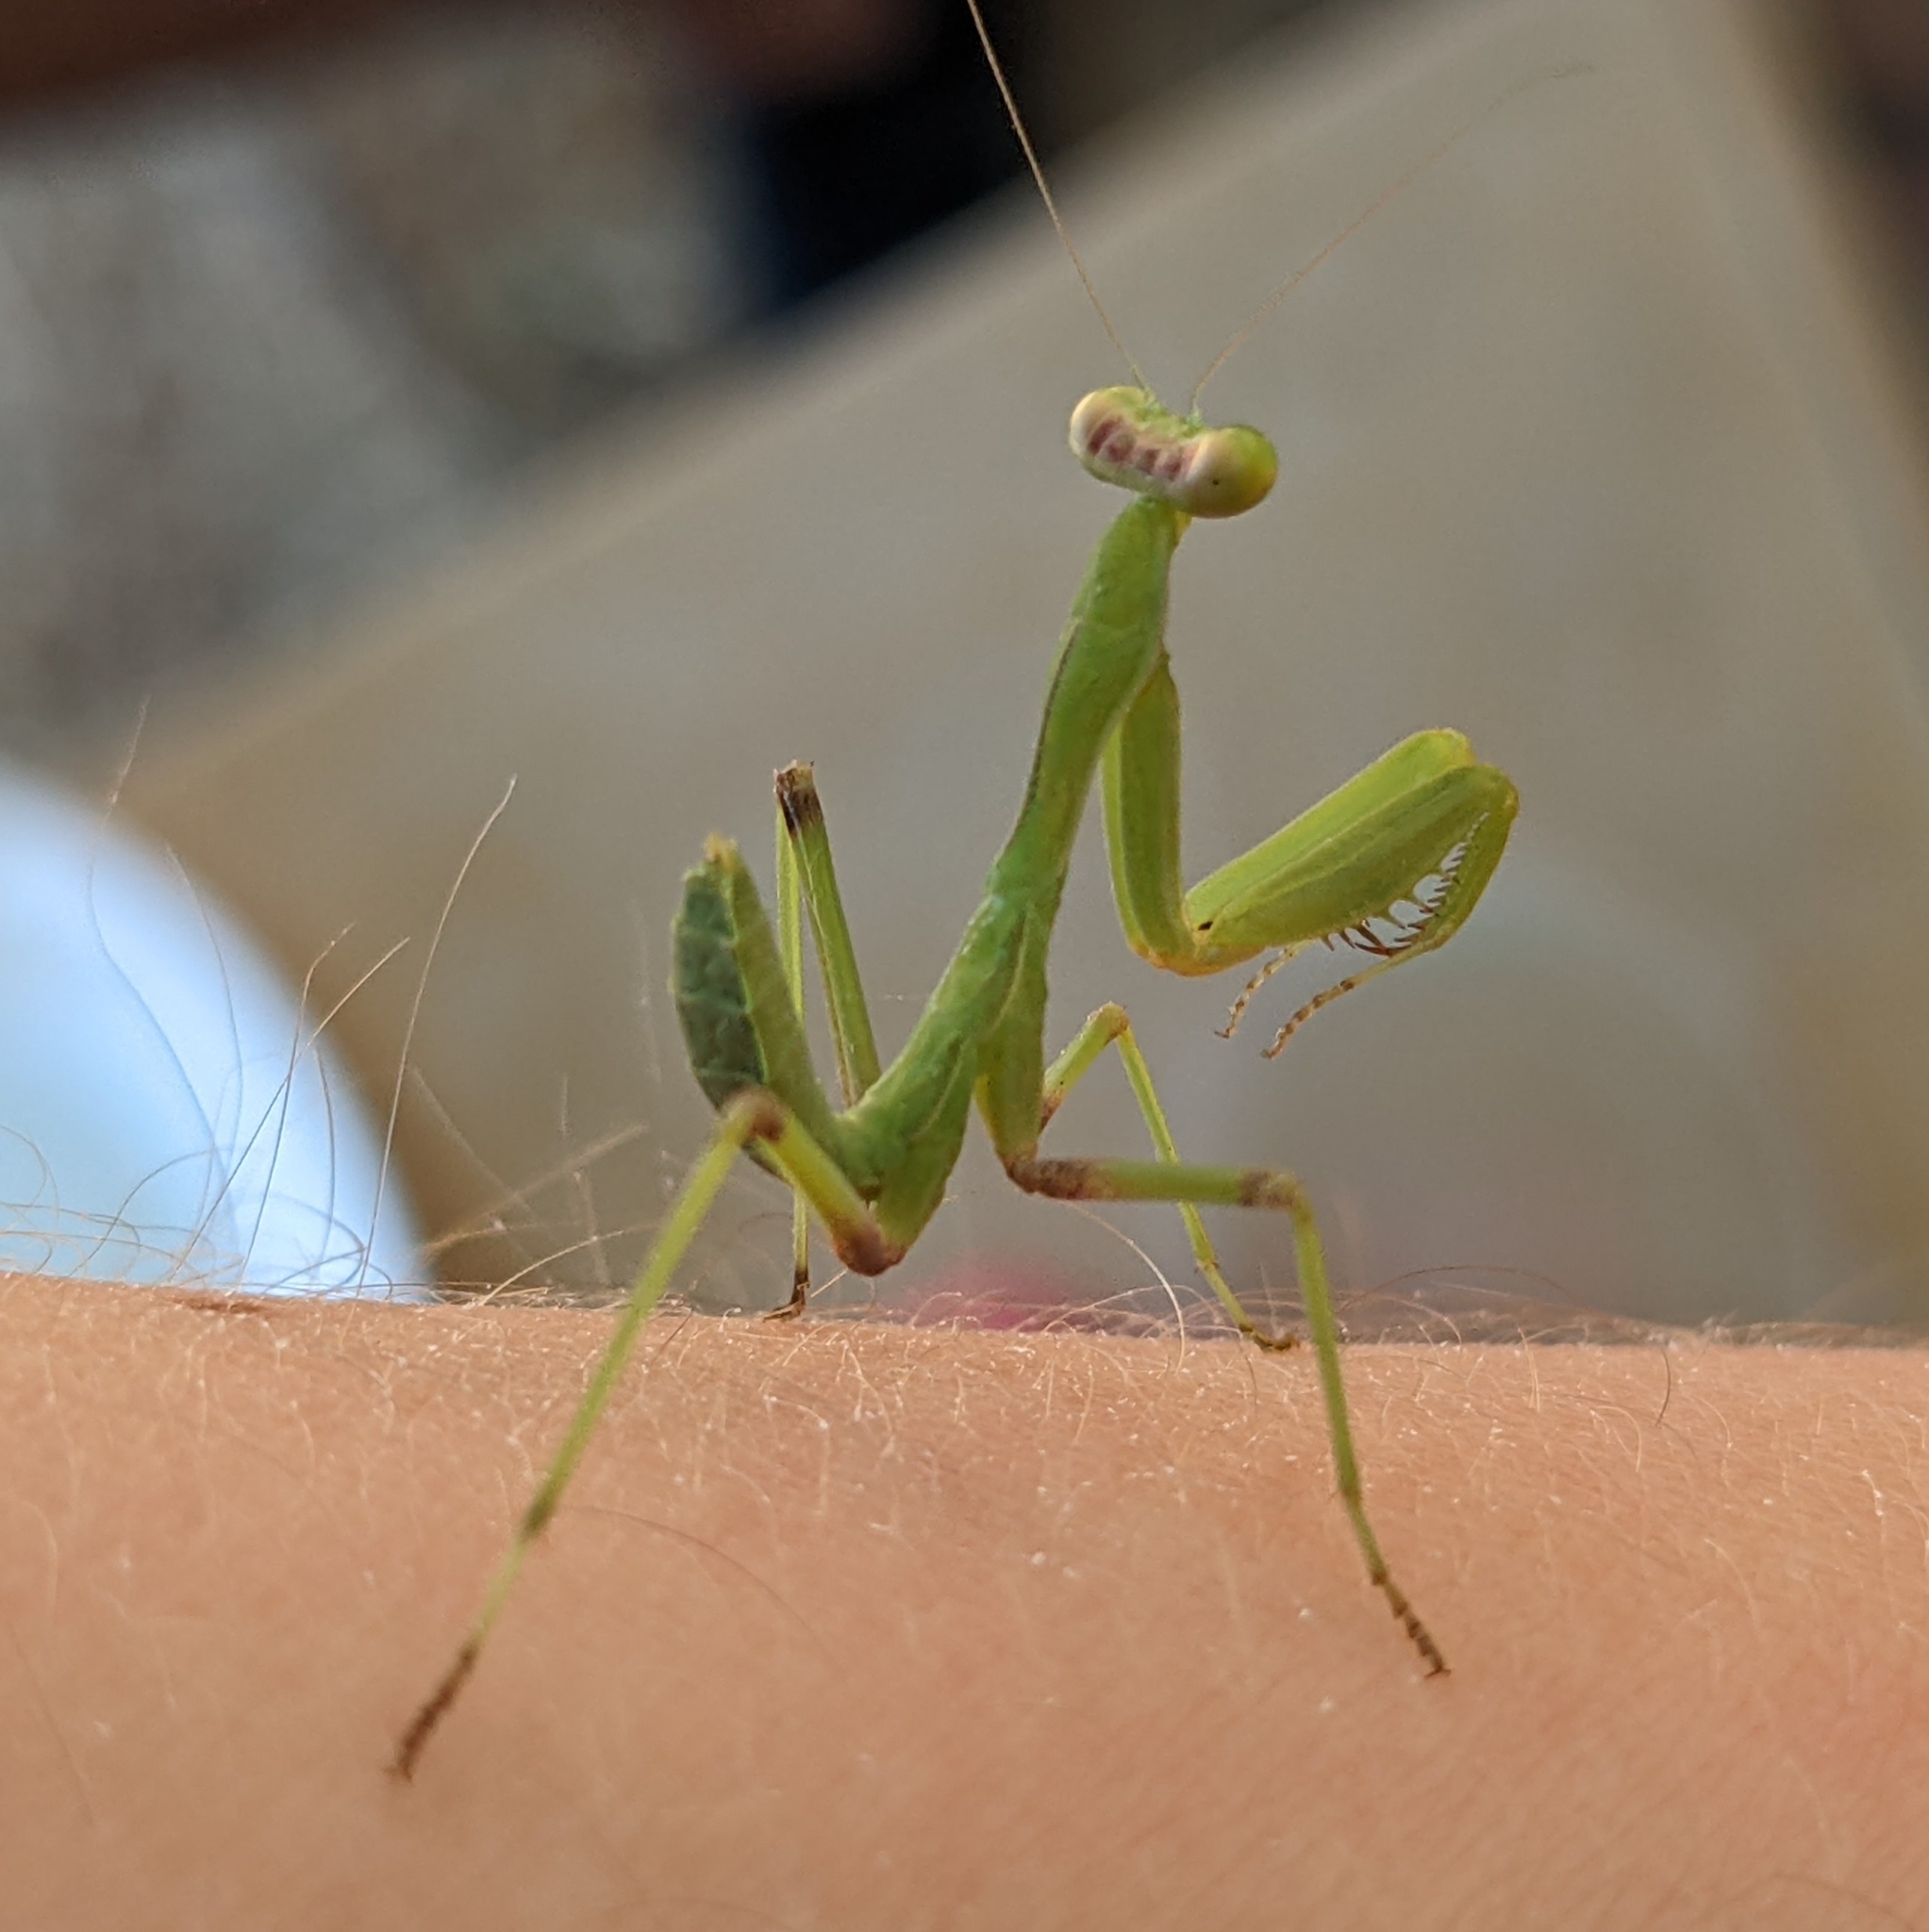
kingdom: Animalia
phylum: Arthropoda
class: Insecta
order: Mantodea
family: Mantidae
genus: Sphodromantis
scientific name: Sphodromantis viridis
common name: Giant african mantis
